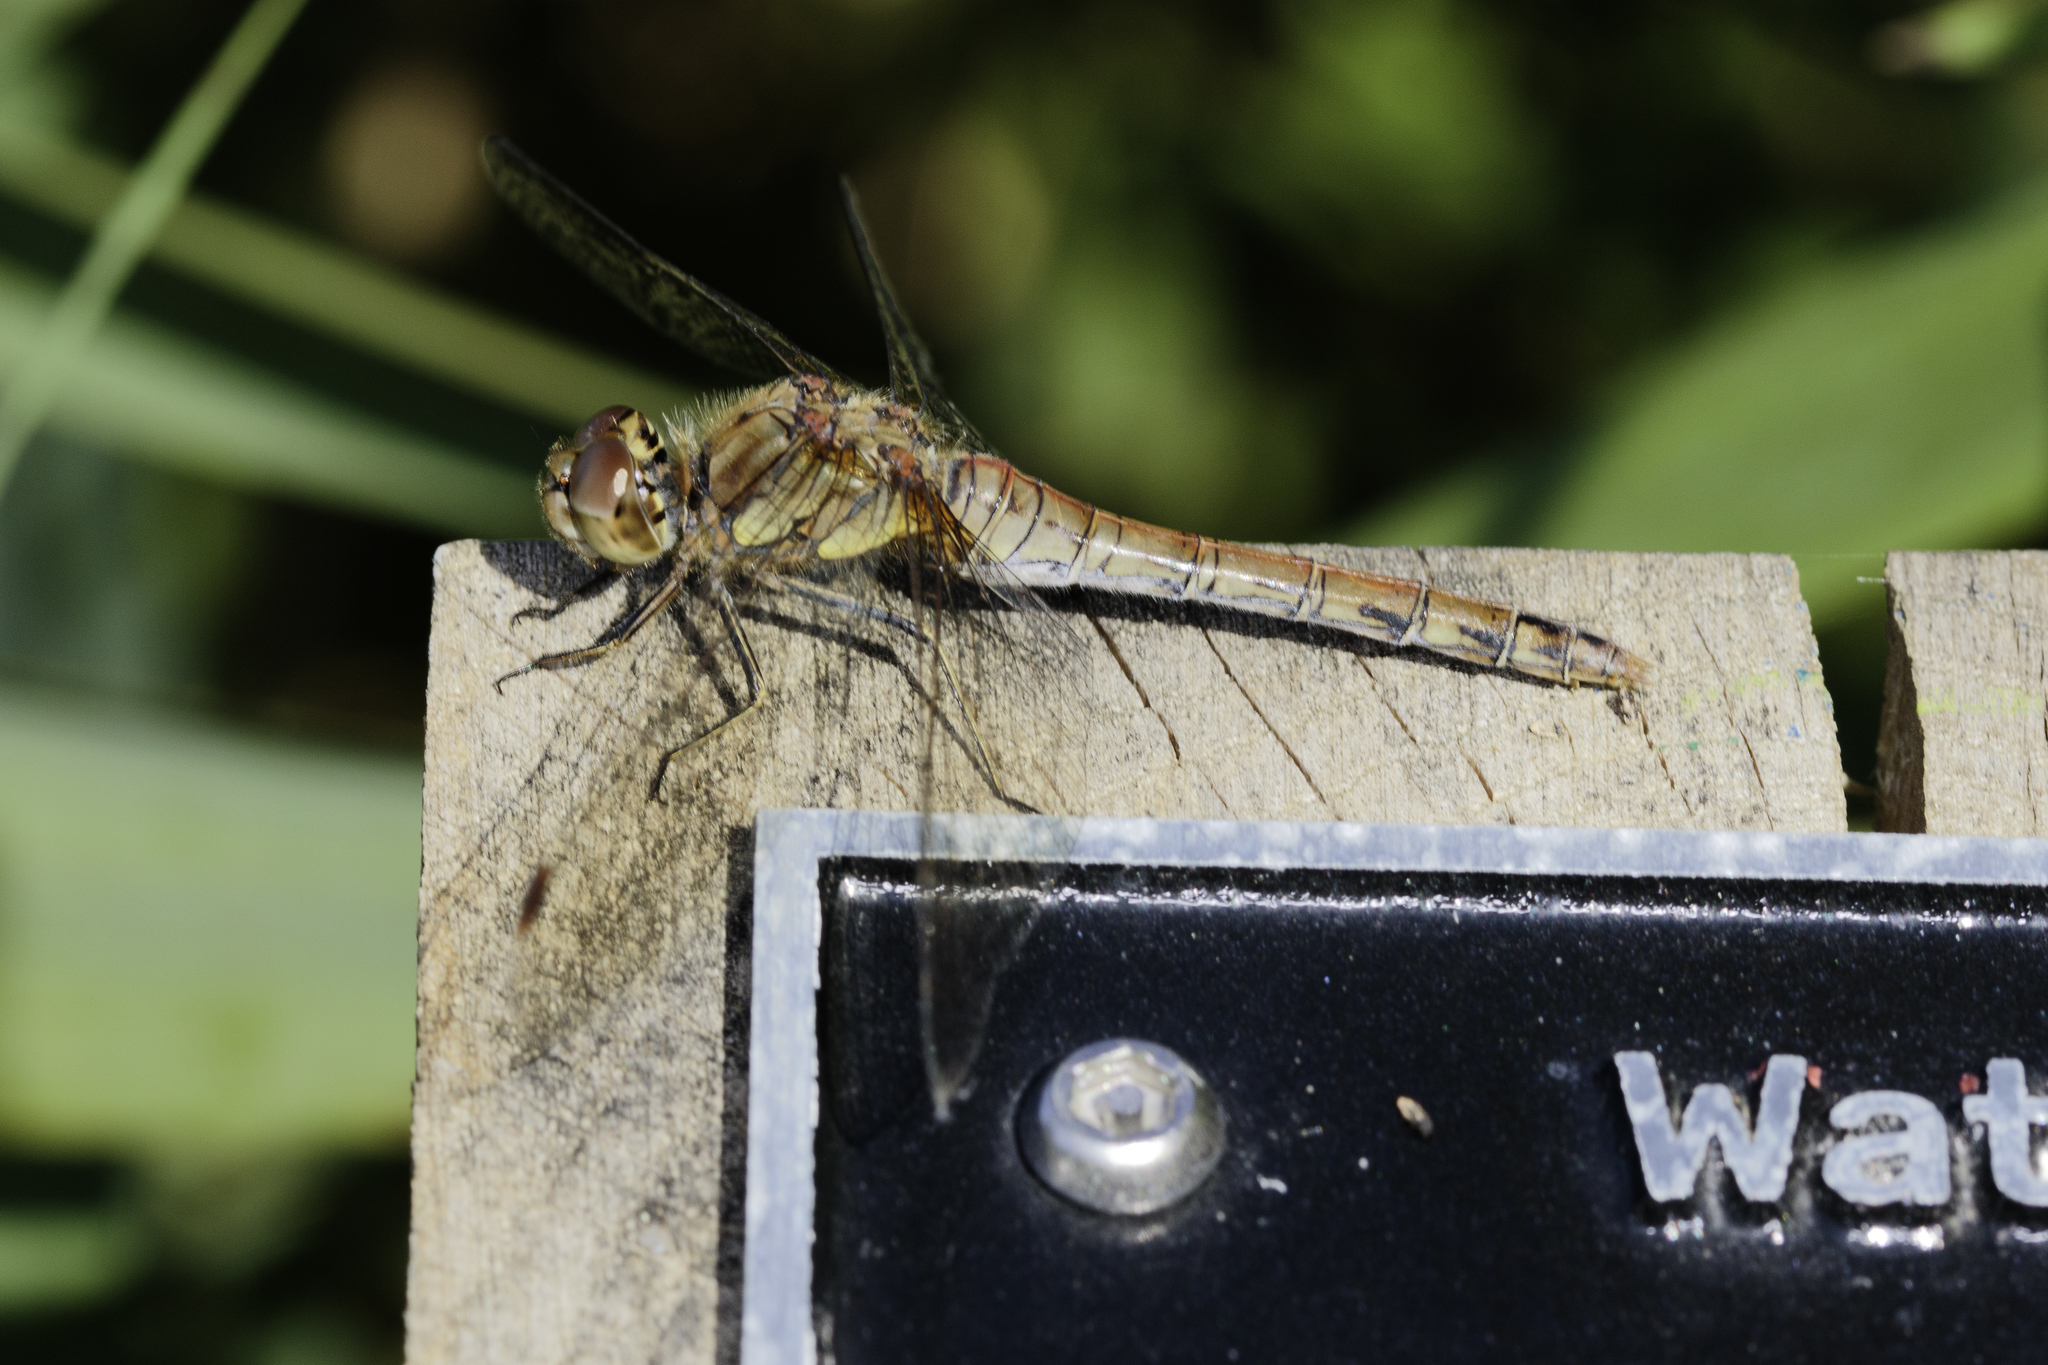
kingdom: Animalia
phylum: Arthropoda
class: Insecta
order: Odonata
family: Libellulidae
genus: Sympetrum
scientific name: Sympetrum striolatum
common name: Common darter
